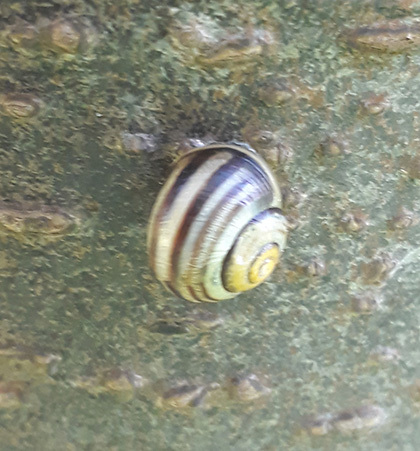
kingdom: Animalia
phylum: Mollusca
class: Gastropoda
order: Stylommatophora
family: Helicidae
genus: Cepaea
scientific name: Cepaea
